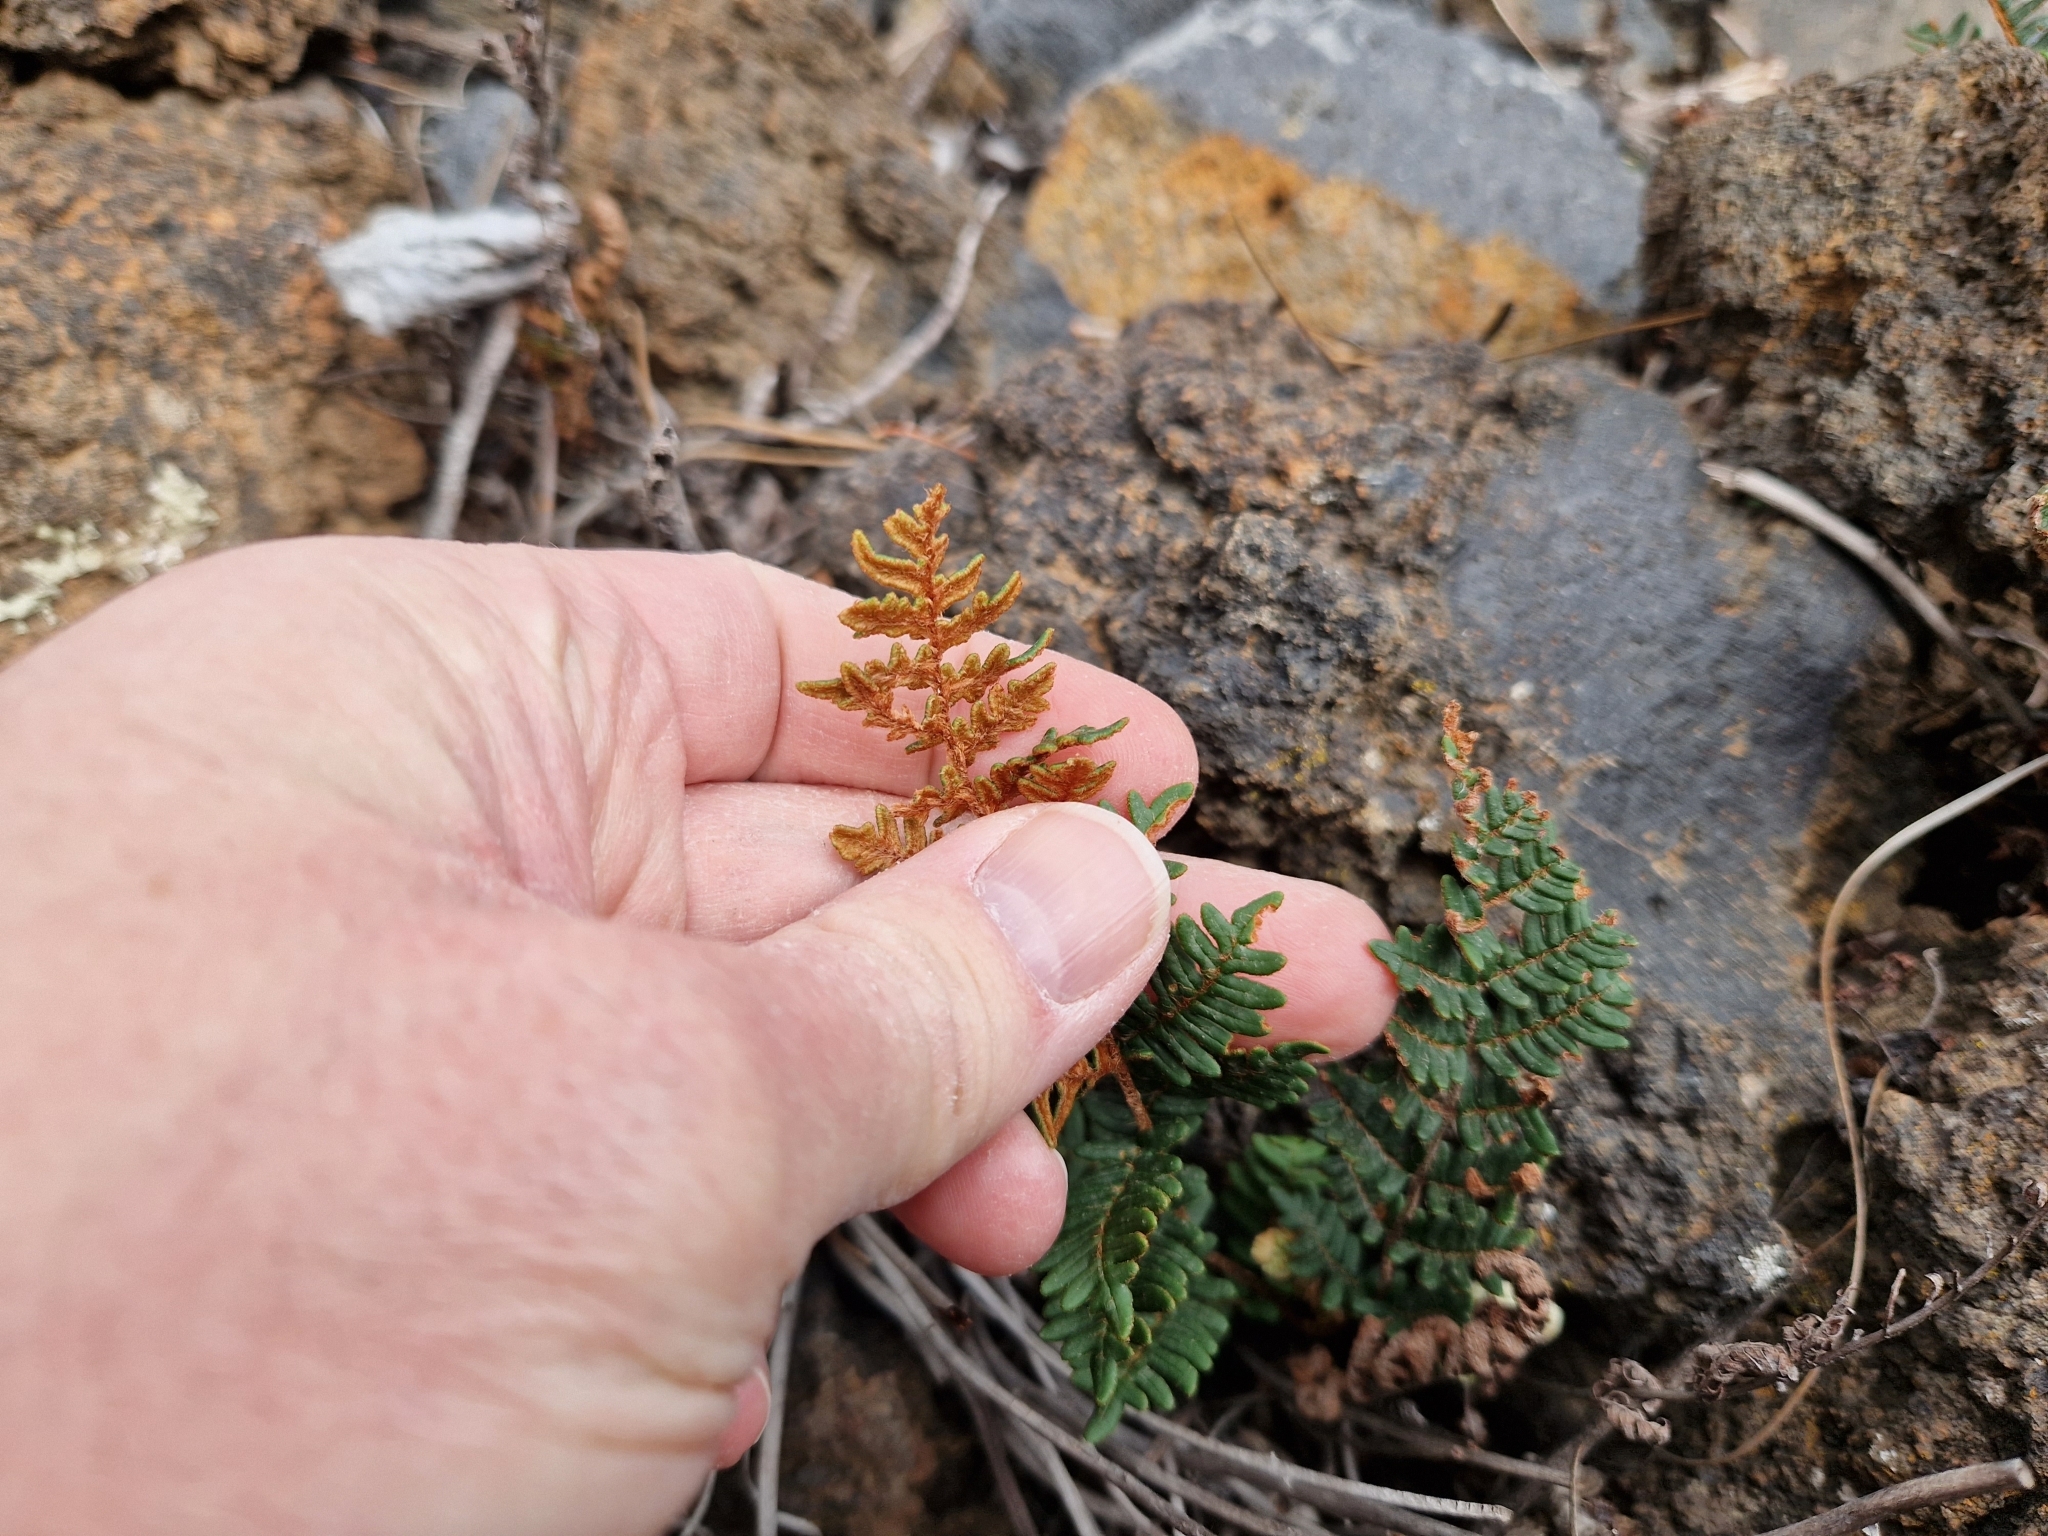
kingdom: Plantae
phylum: Tracheophyta
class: Polypodiopsida
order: Polypodiales
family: Pteridaceae
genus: Paragymnopteris
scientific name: Paragymnopteris marantae
